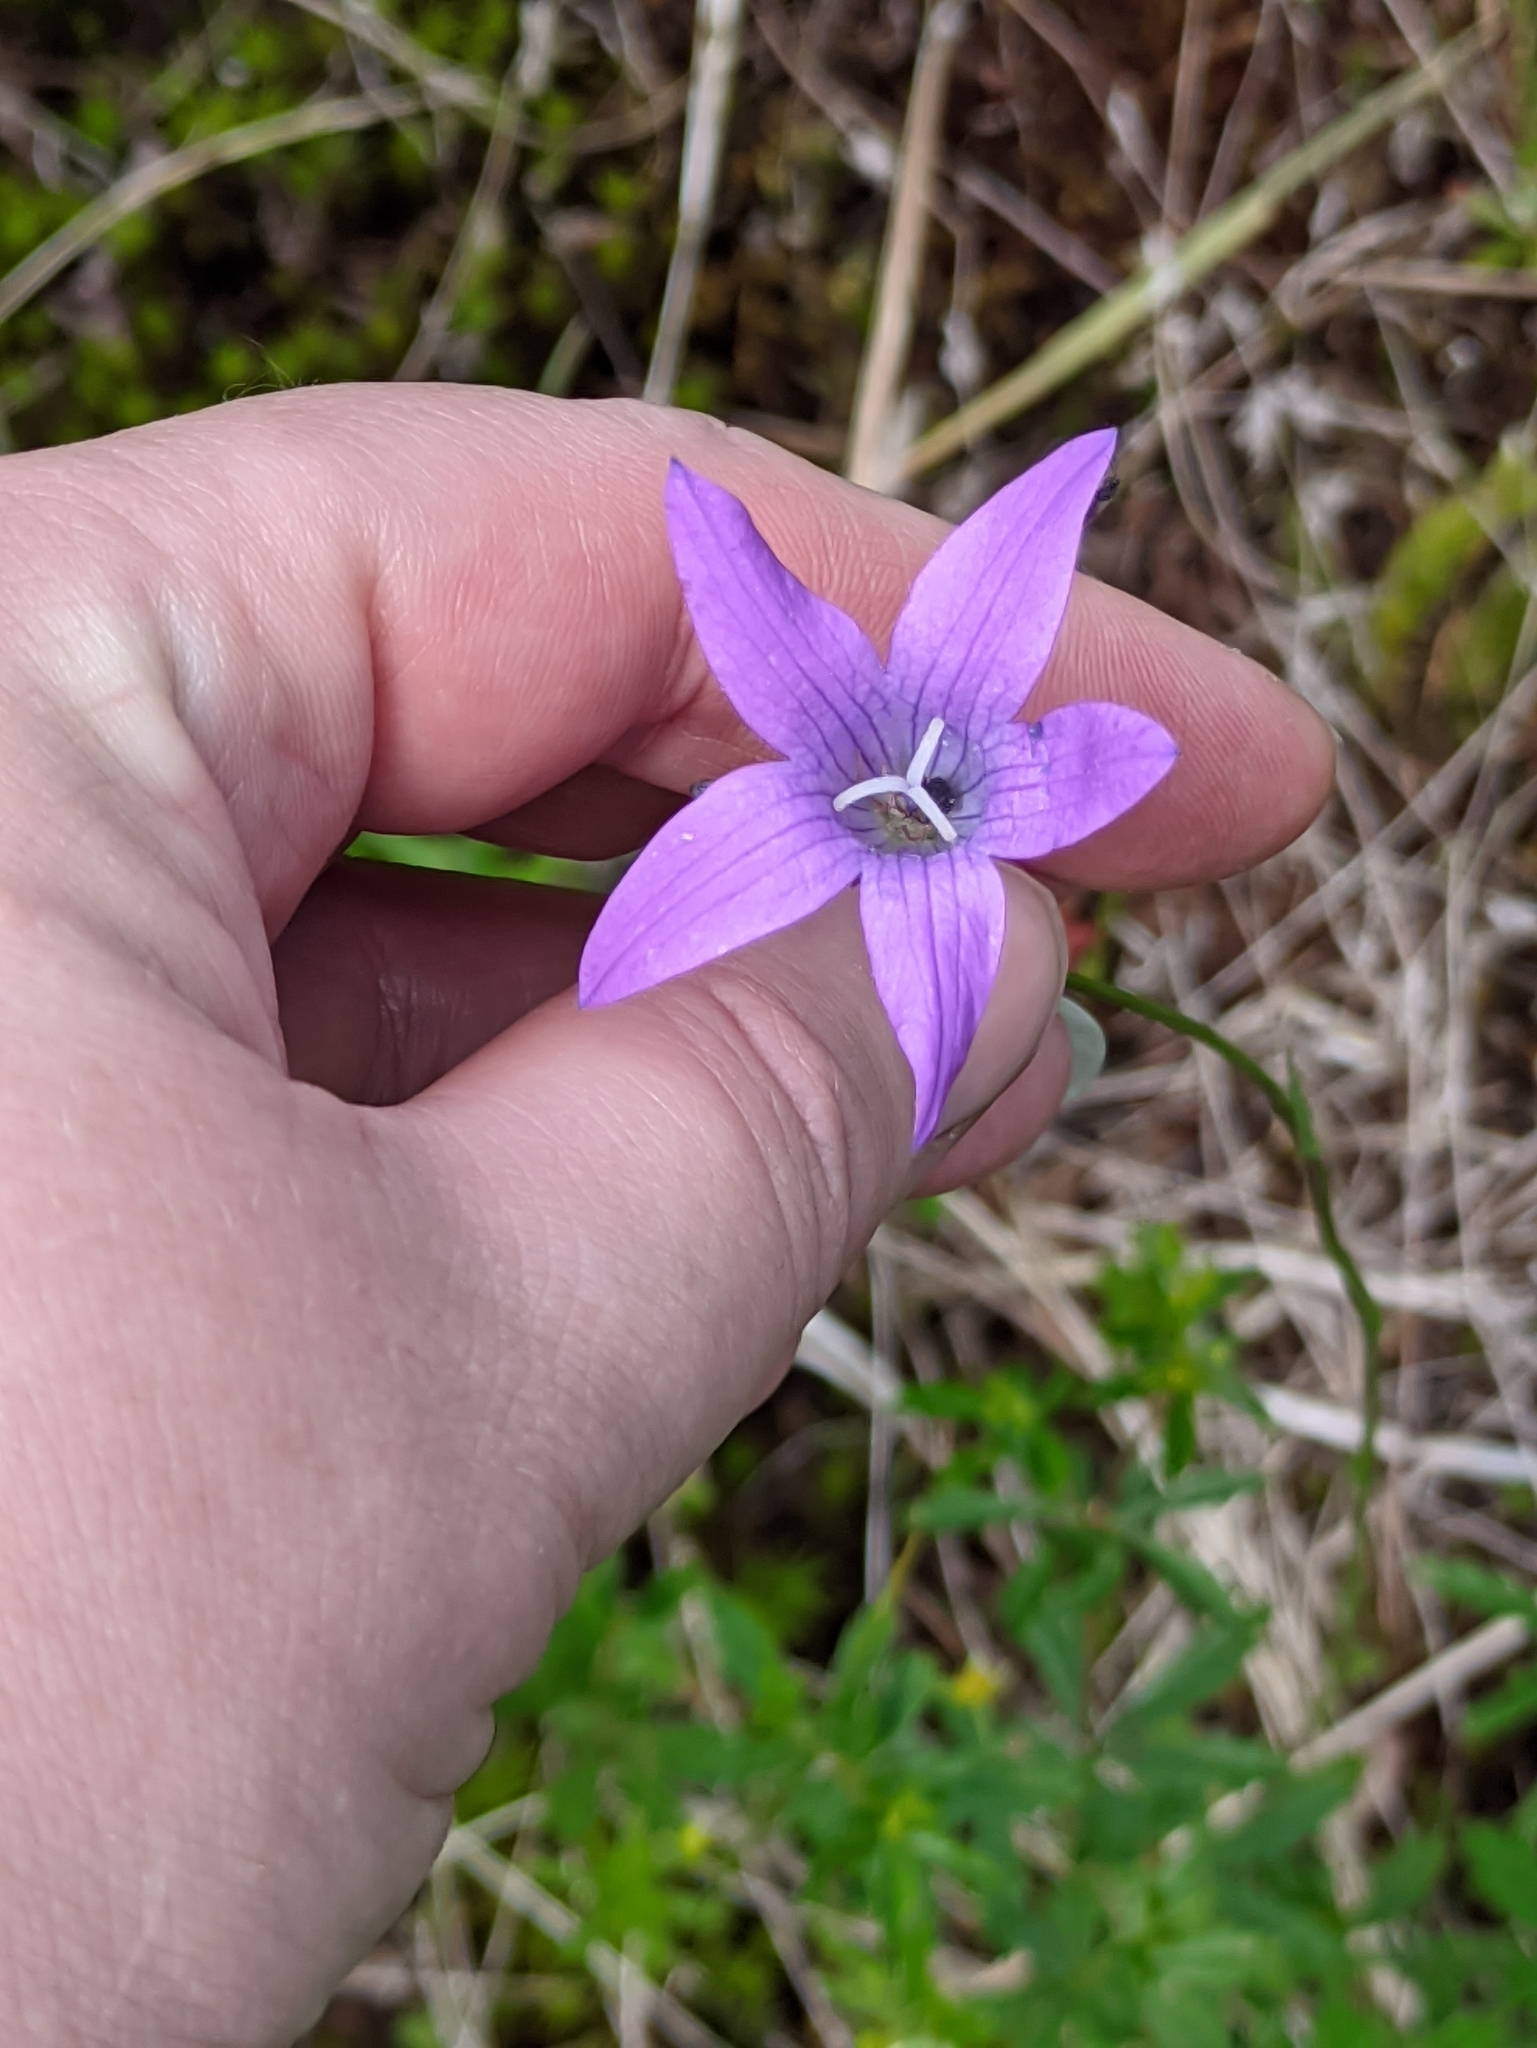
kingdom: Plantae
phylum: Tracheophyta
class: Magnoliopsida
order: Asterales
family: Campanulaceae
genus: Campanula
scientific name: Campanula patula
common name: Spreading bellflower
